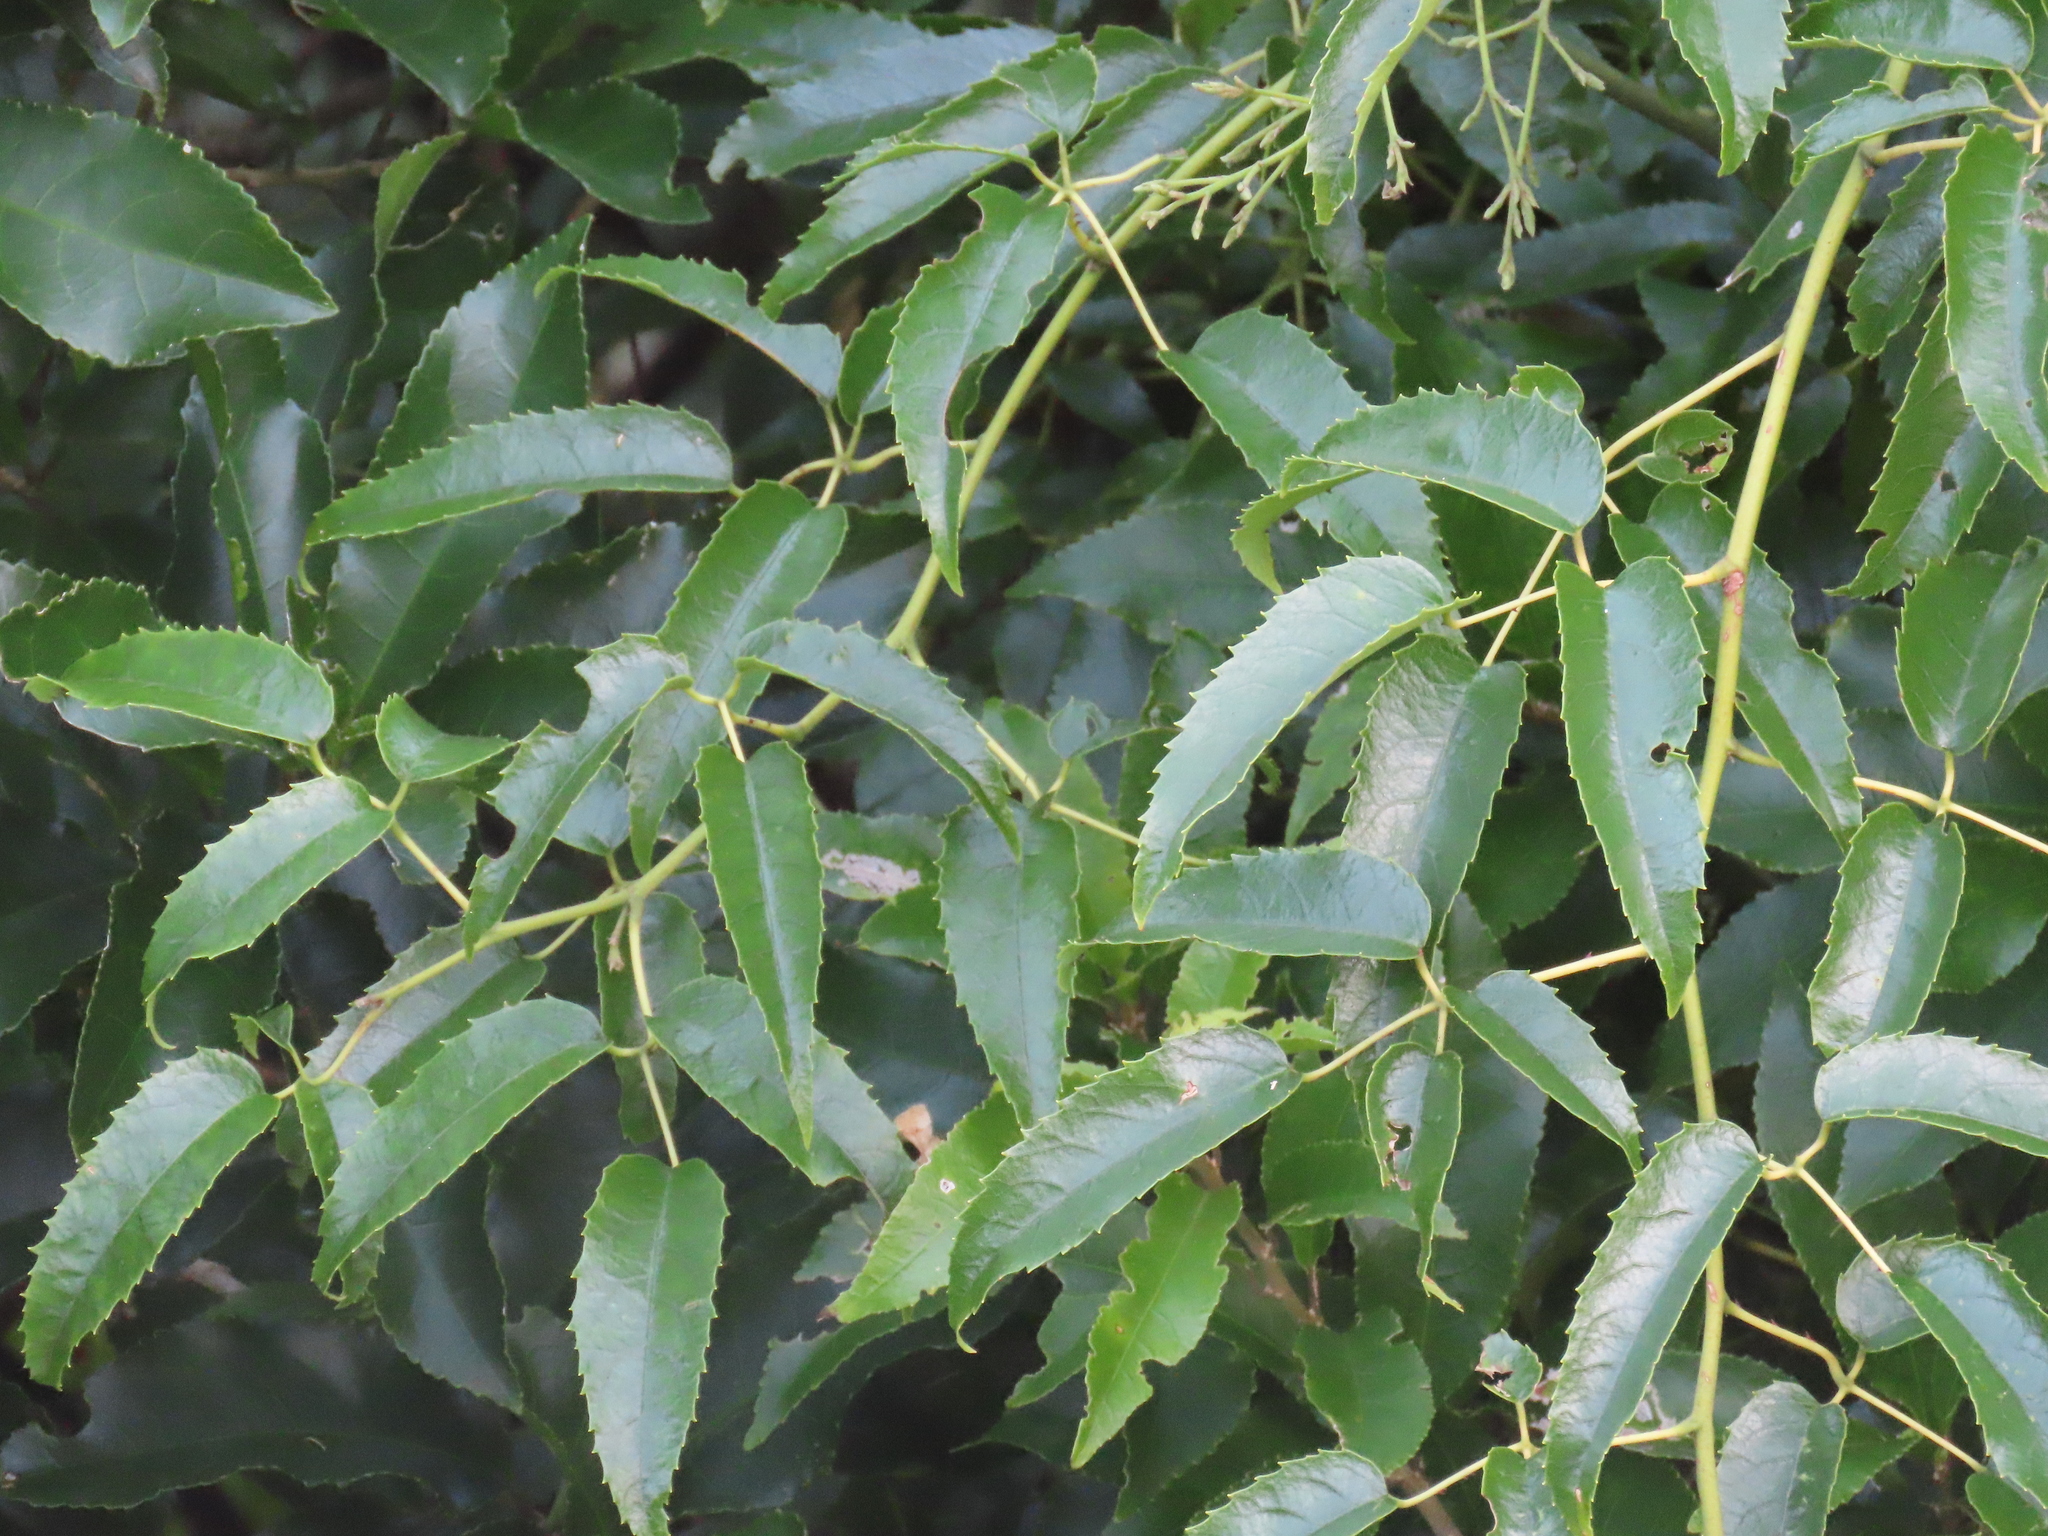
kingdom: Plantae
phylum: Tracheophyta
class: Magnoliopsida
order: Rosales
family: Rosaceae
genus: Rubus
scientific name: Rubus cissoides
